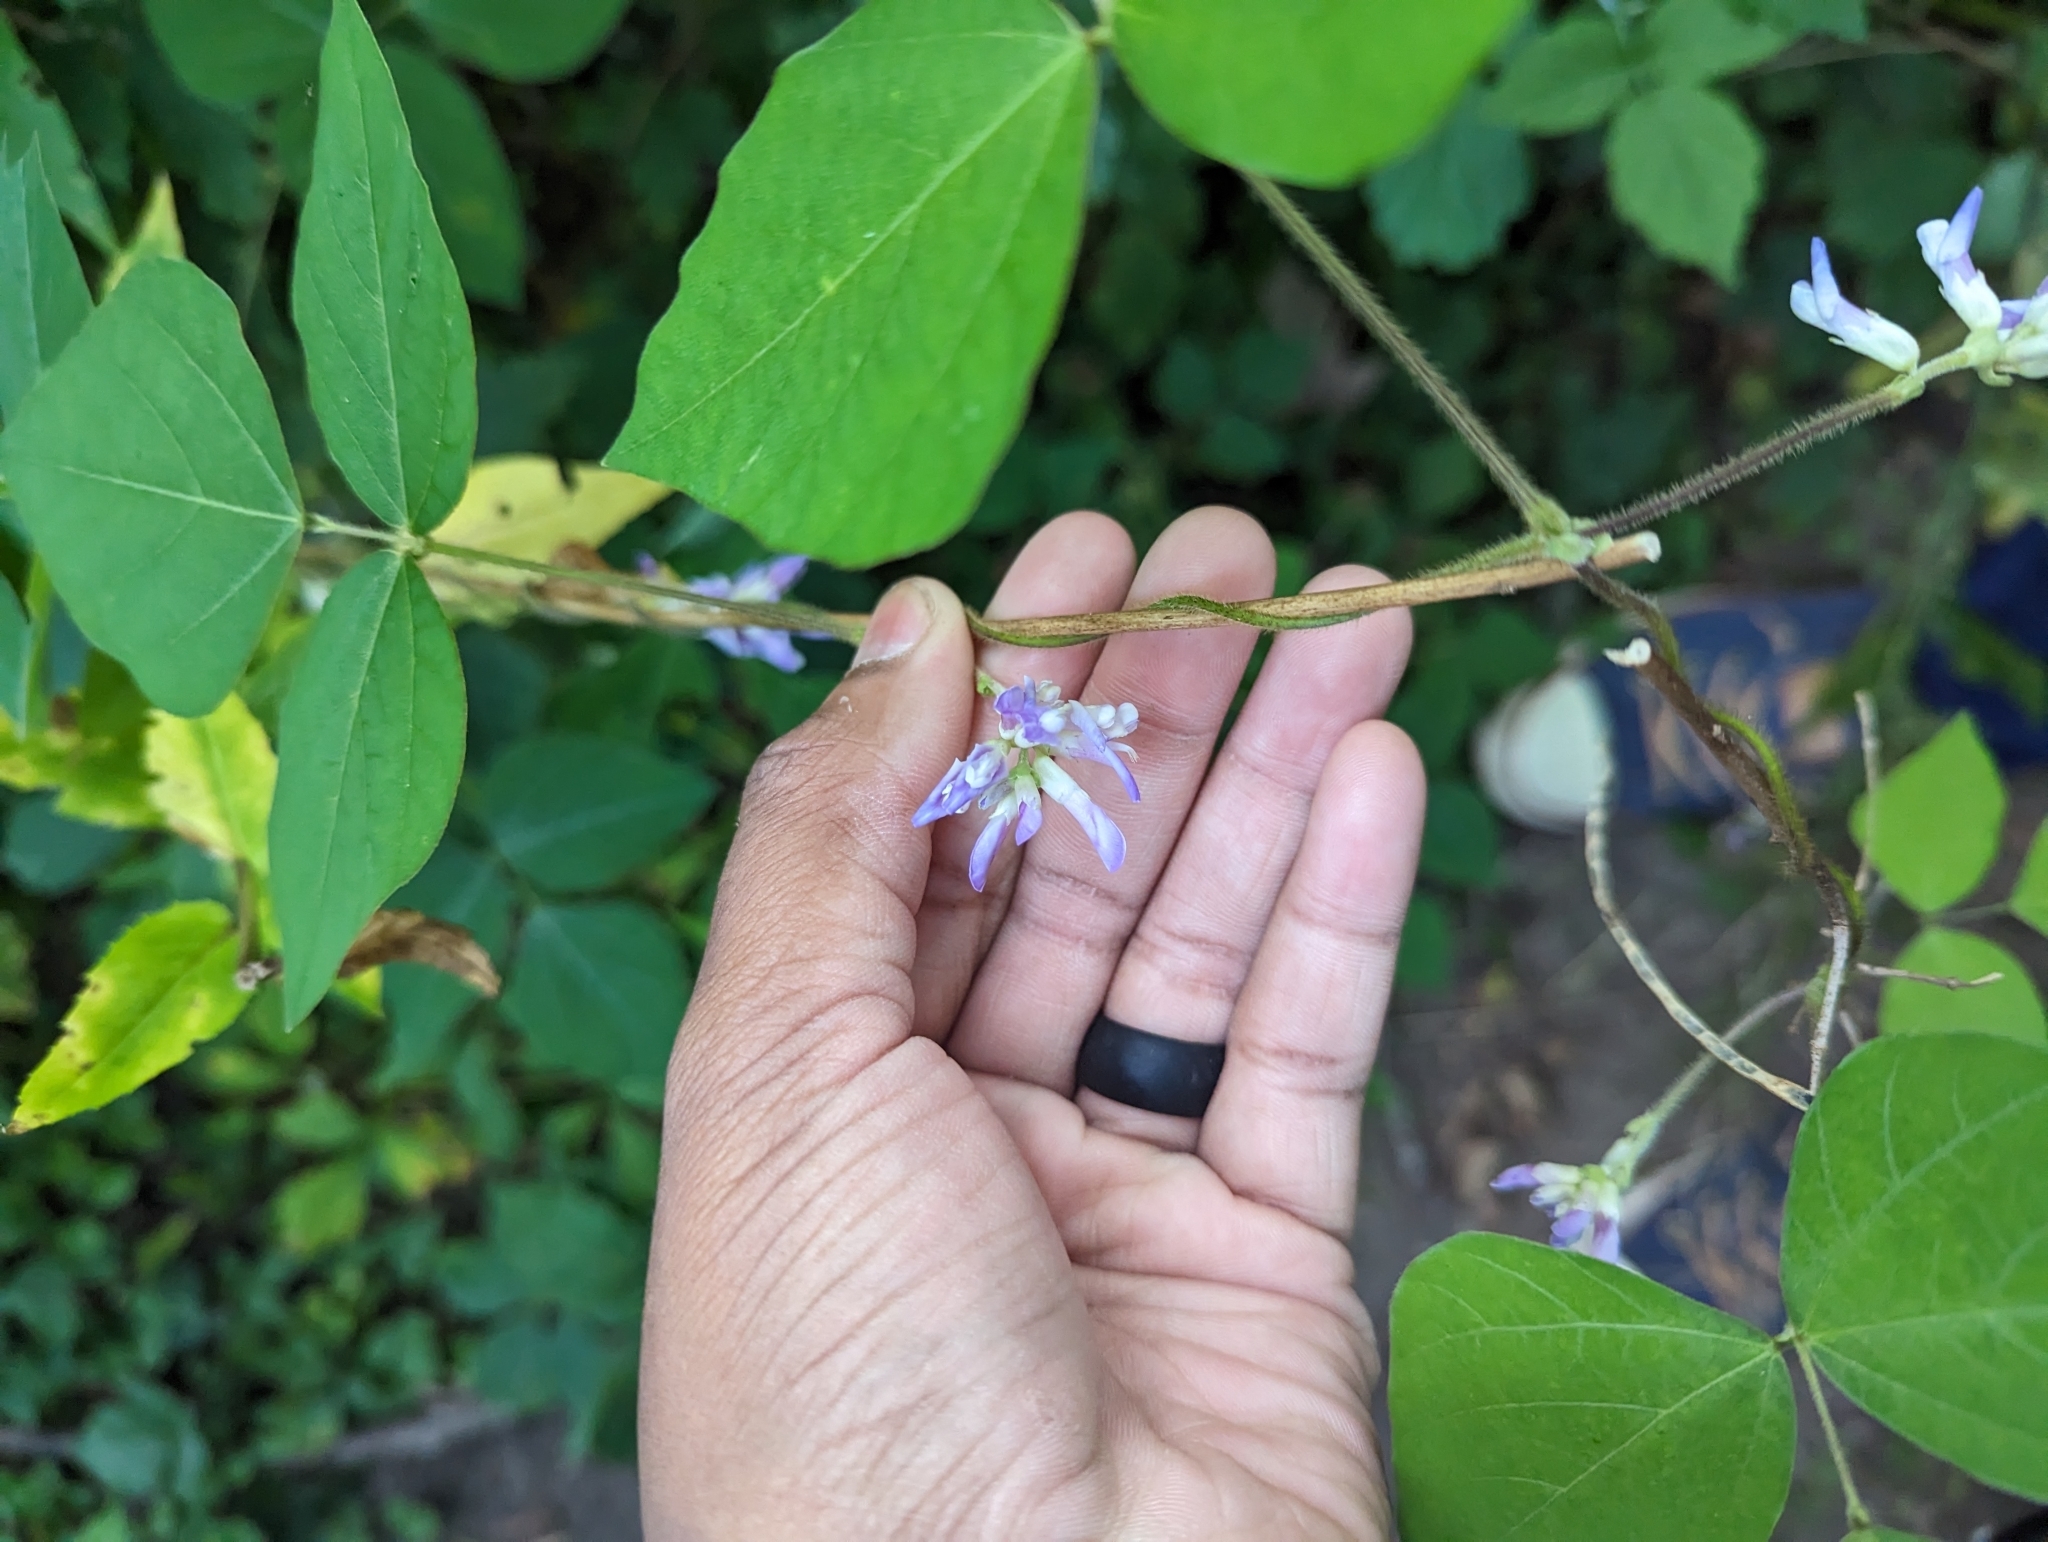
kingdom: Plantae
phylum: Tracheophyta
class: Magnoliopsida
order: Fabales
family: Fabaceae
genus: Amphicarpaea
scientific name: Amphicarpaea bracteata
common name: American hog peanut
